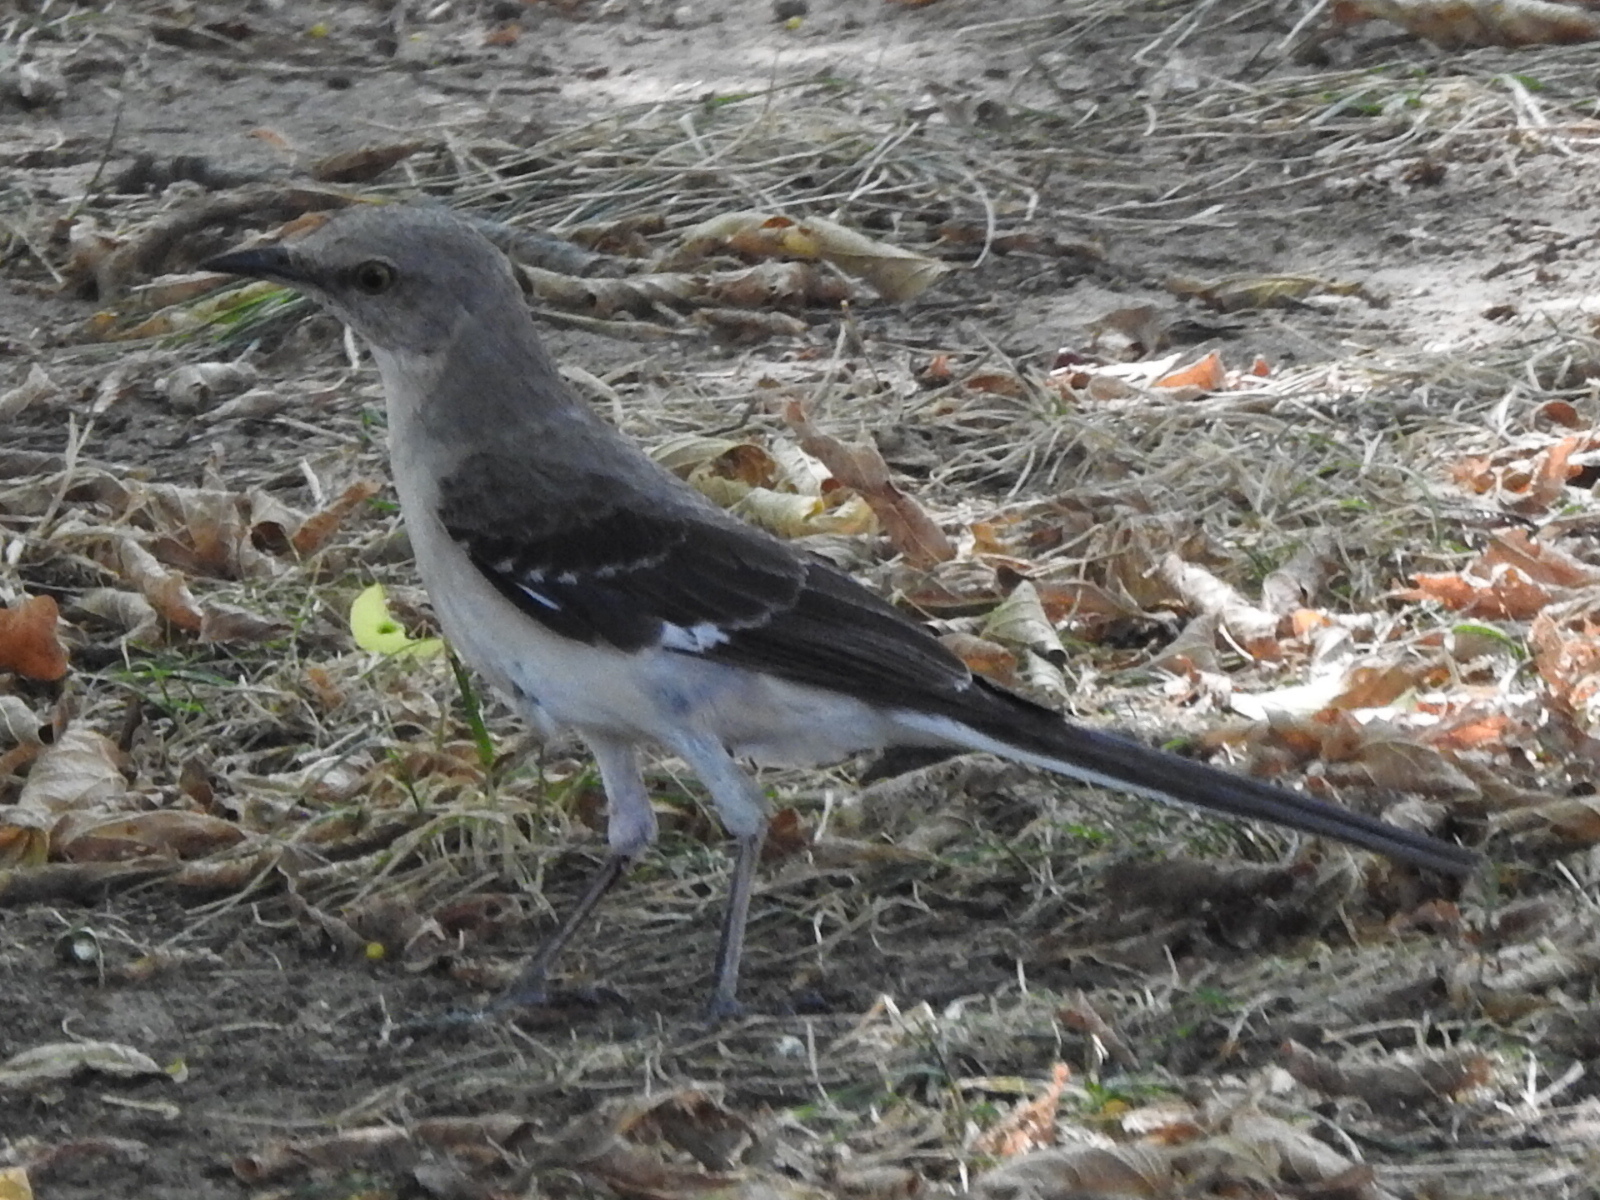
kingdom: Animalia
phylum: Chordata
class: Aves
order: Passeriformes
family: Mimidae
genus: Mimus
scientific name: Mimus polyglottos
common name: Northern mockingbird
